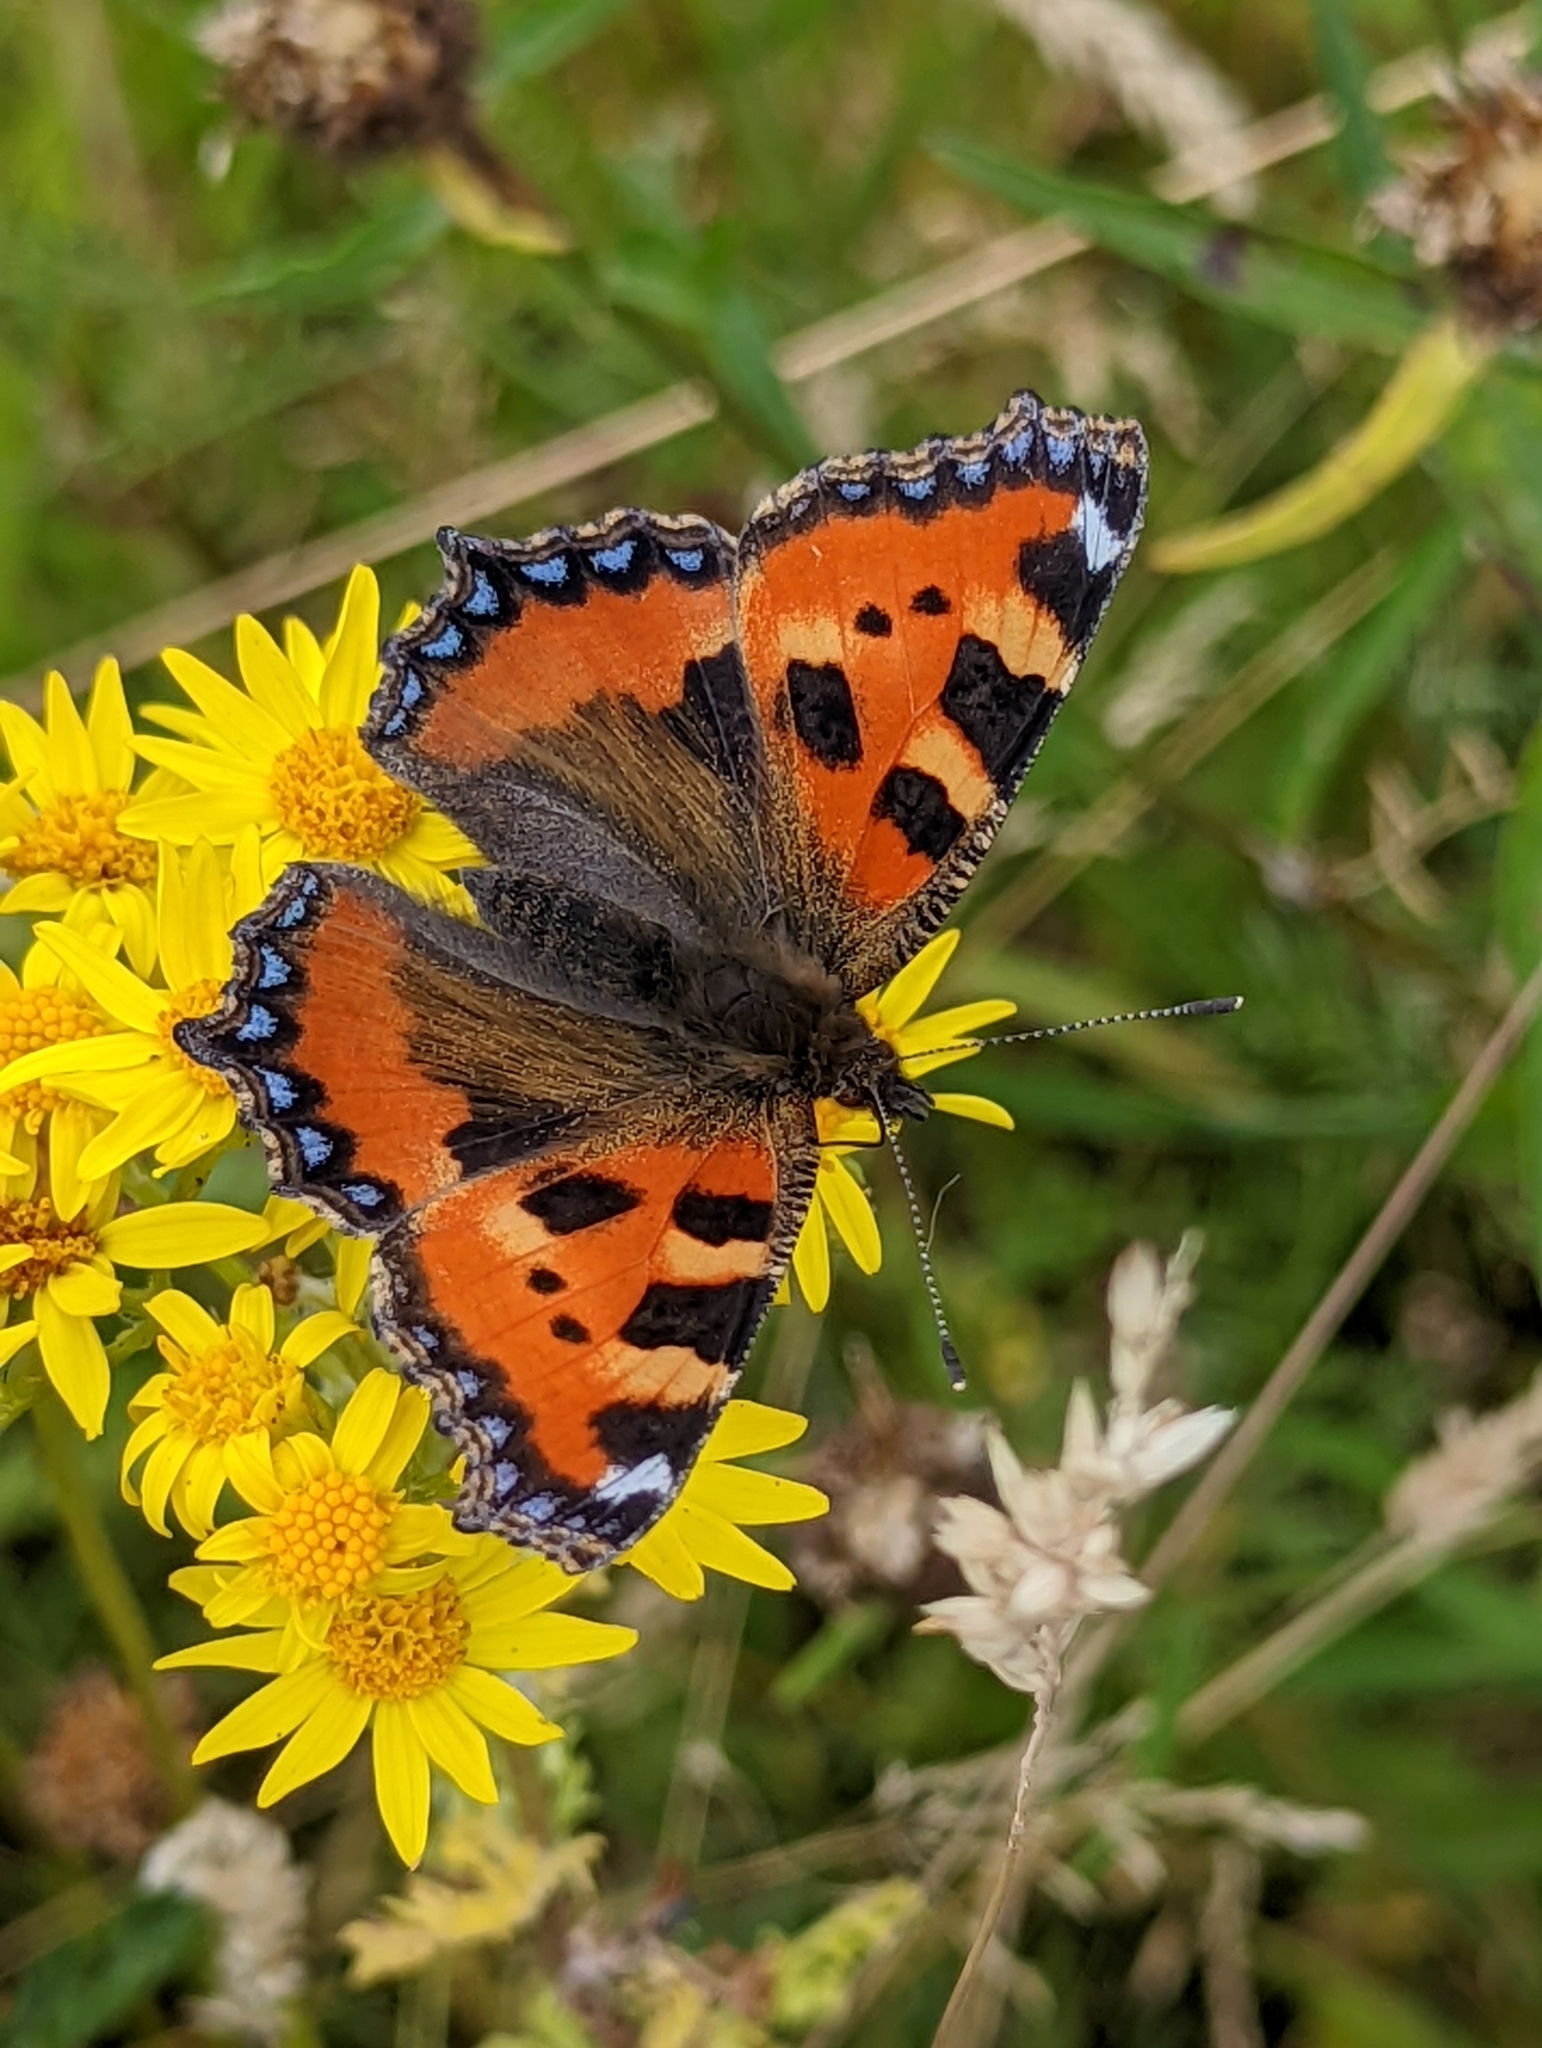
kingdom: Animalia
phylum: Arthropoda
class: Insecta
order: Lepidoptera
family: Nymphalidae
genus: Aglais
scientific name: Aglais urticae
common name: Small tortoiseshell
